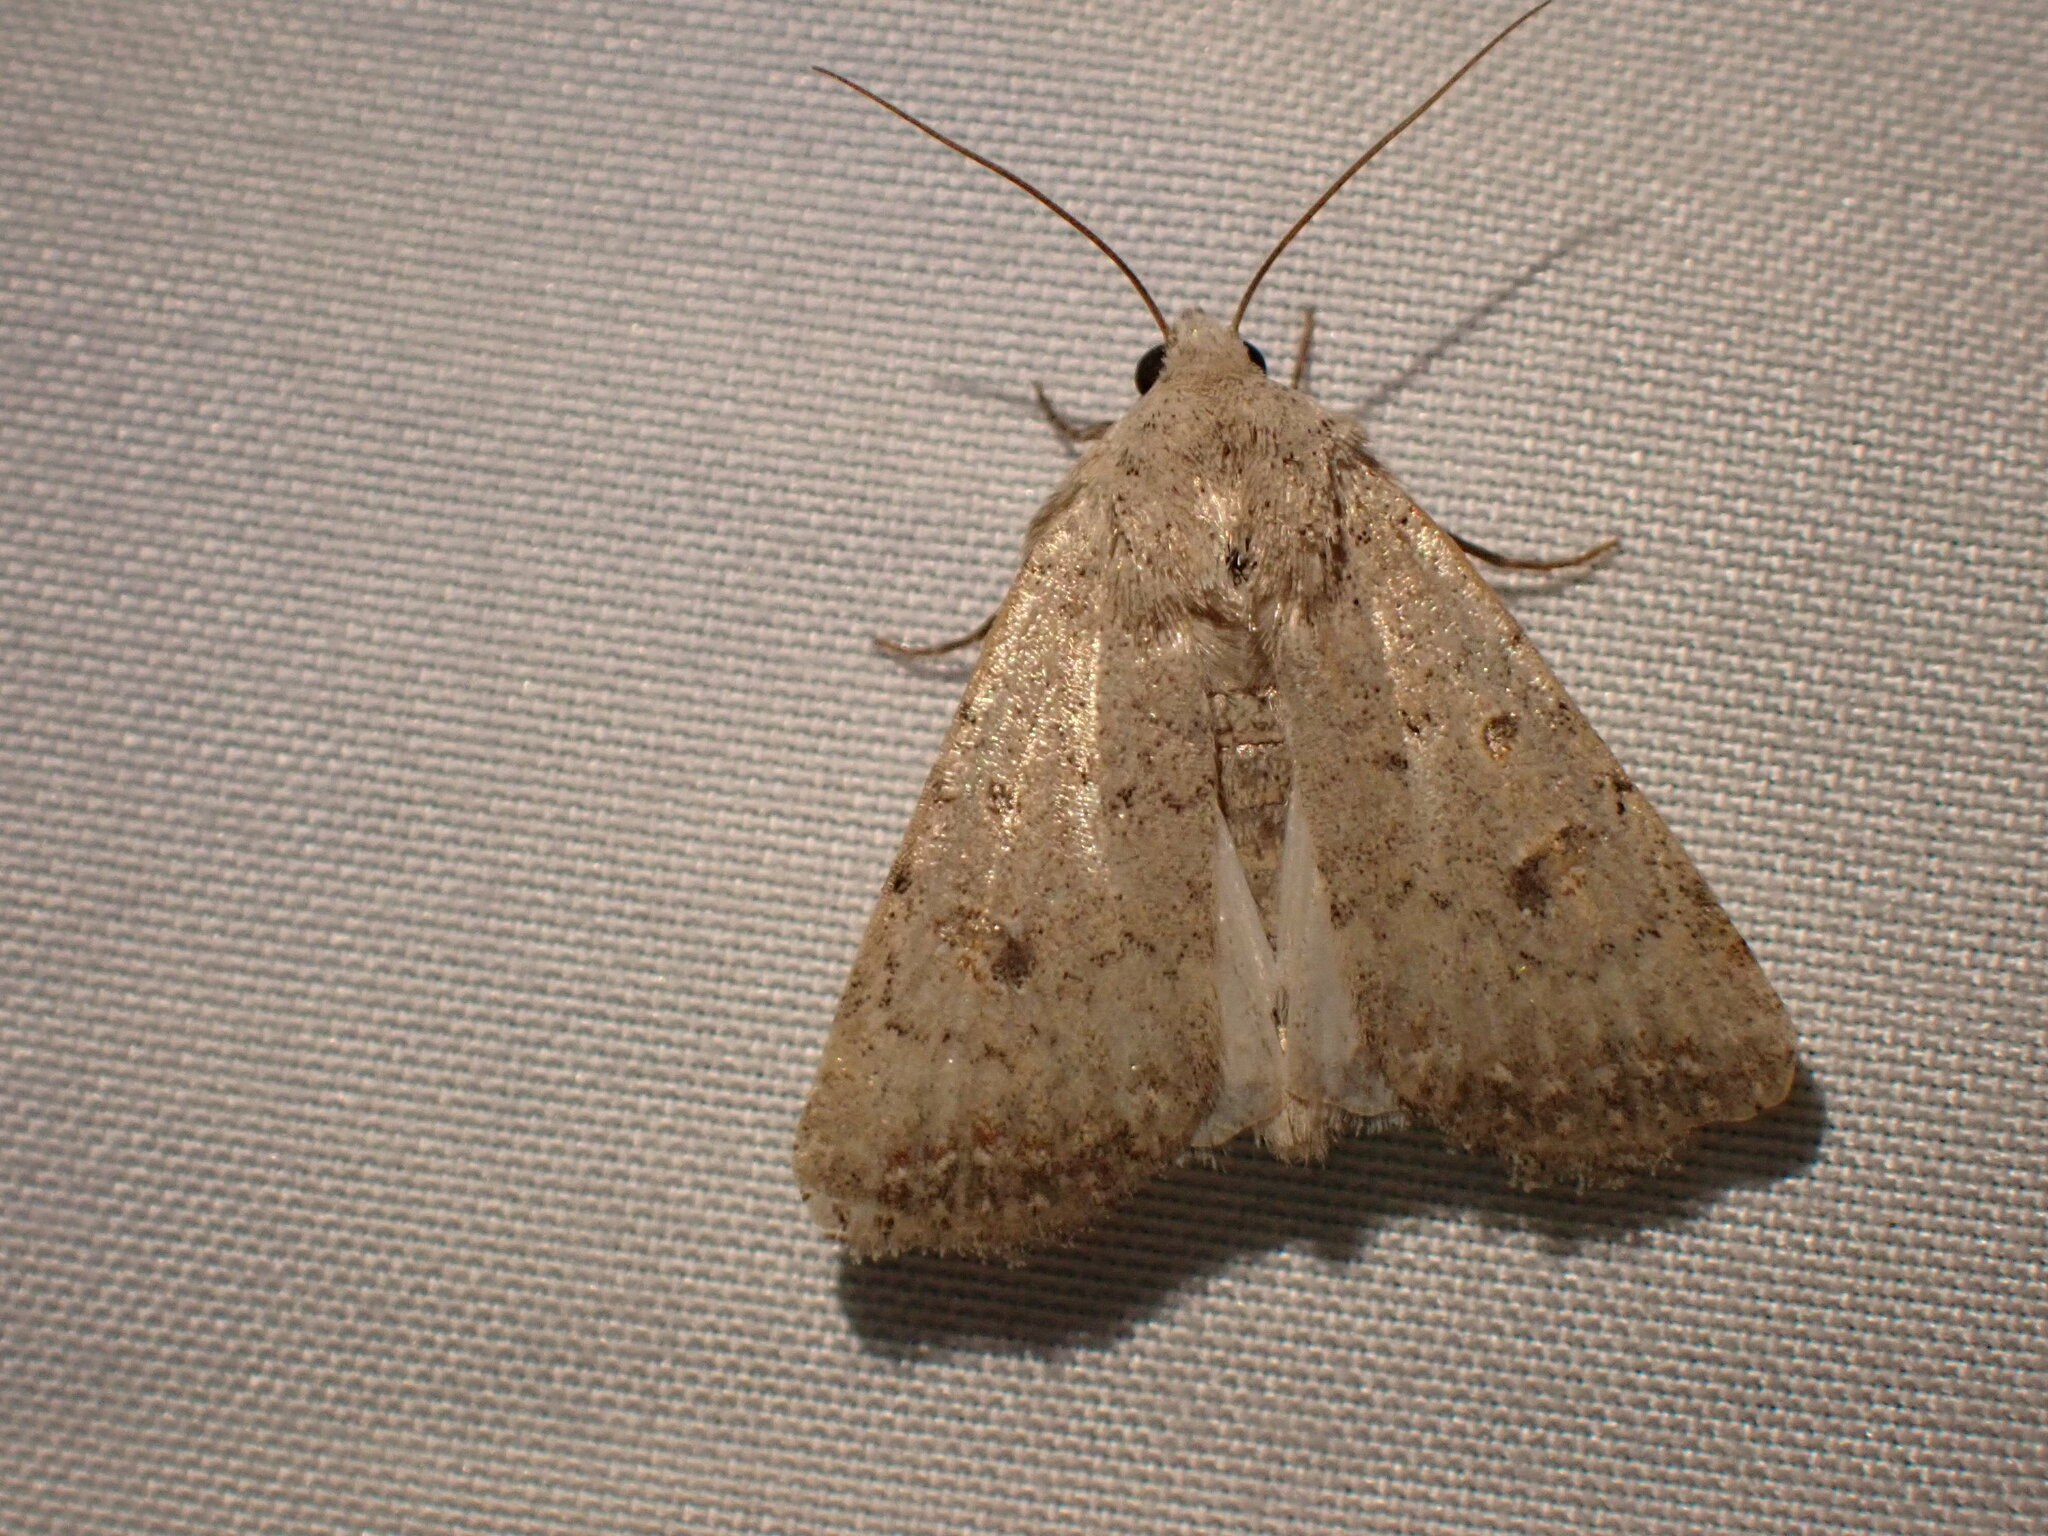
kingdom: Animalia
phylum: Arthropoda
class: Insecta
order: Lepidoptera
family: Noctuidae
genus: Caradrina
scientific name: Caradrina montana
